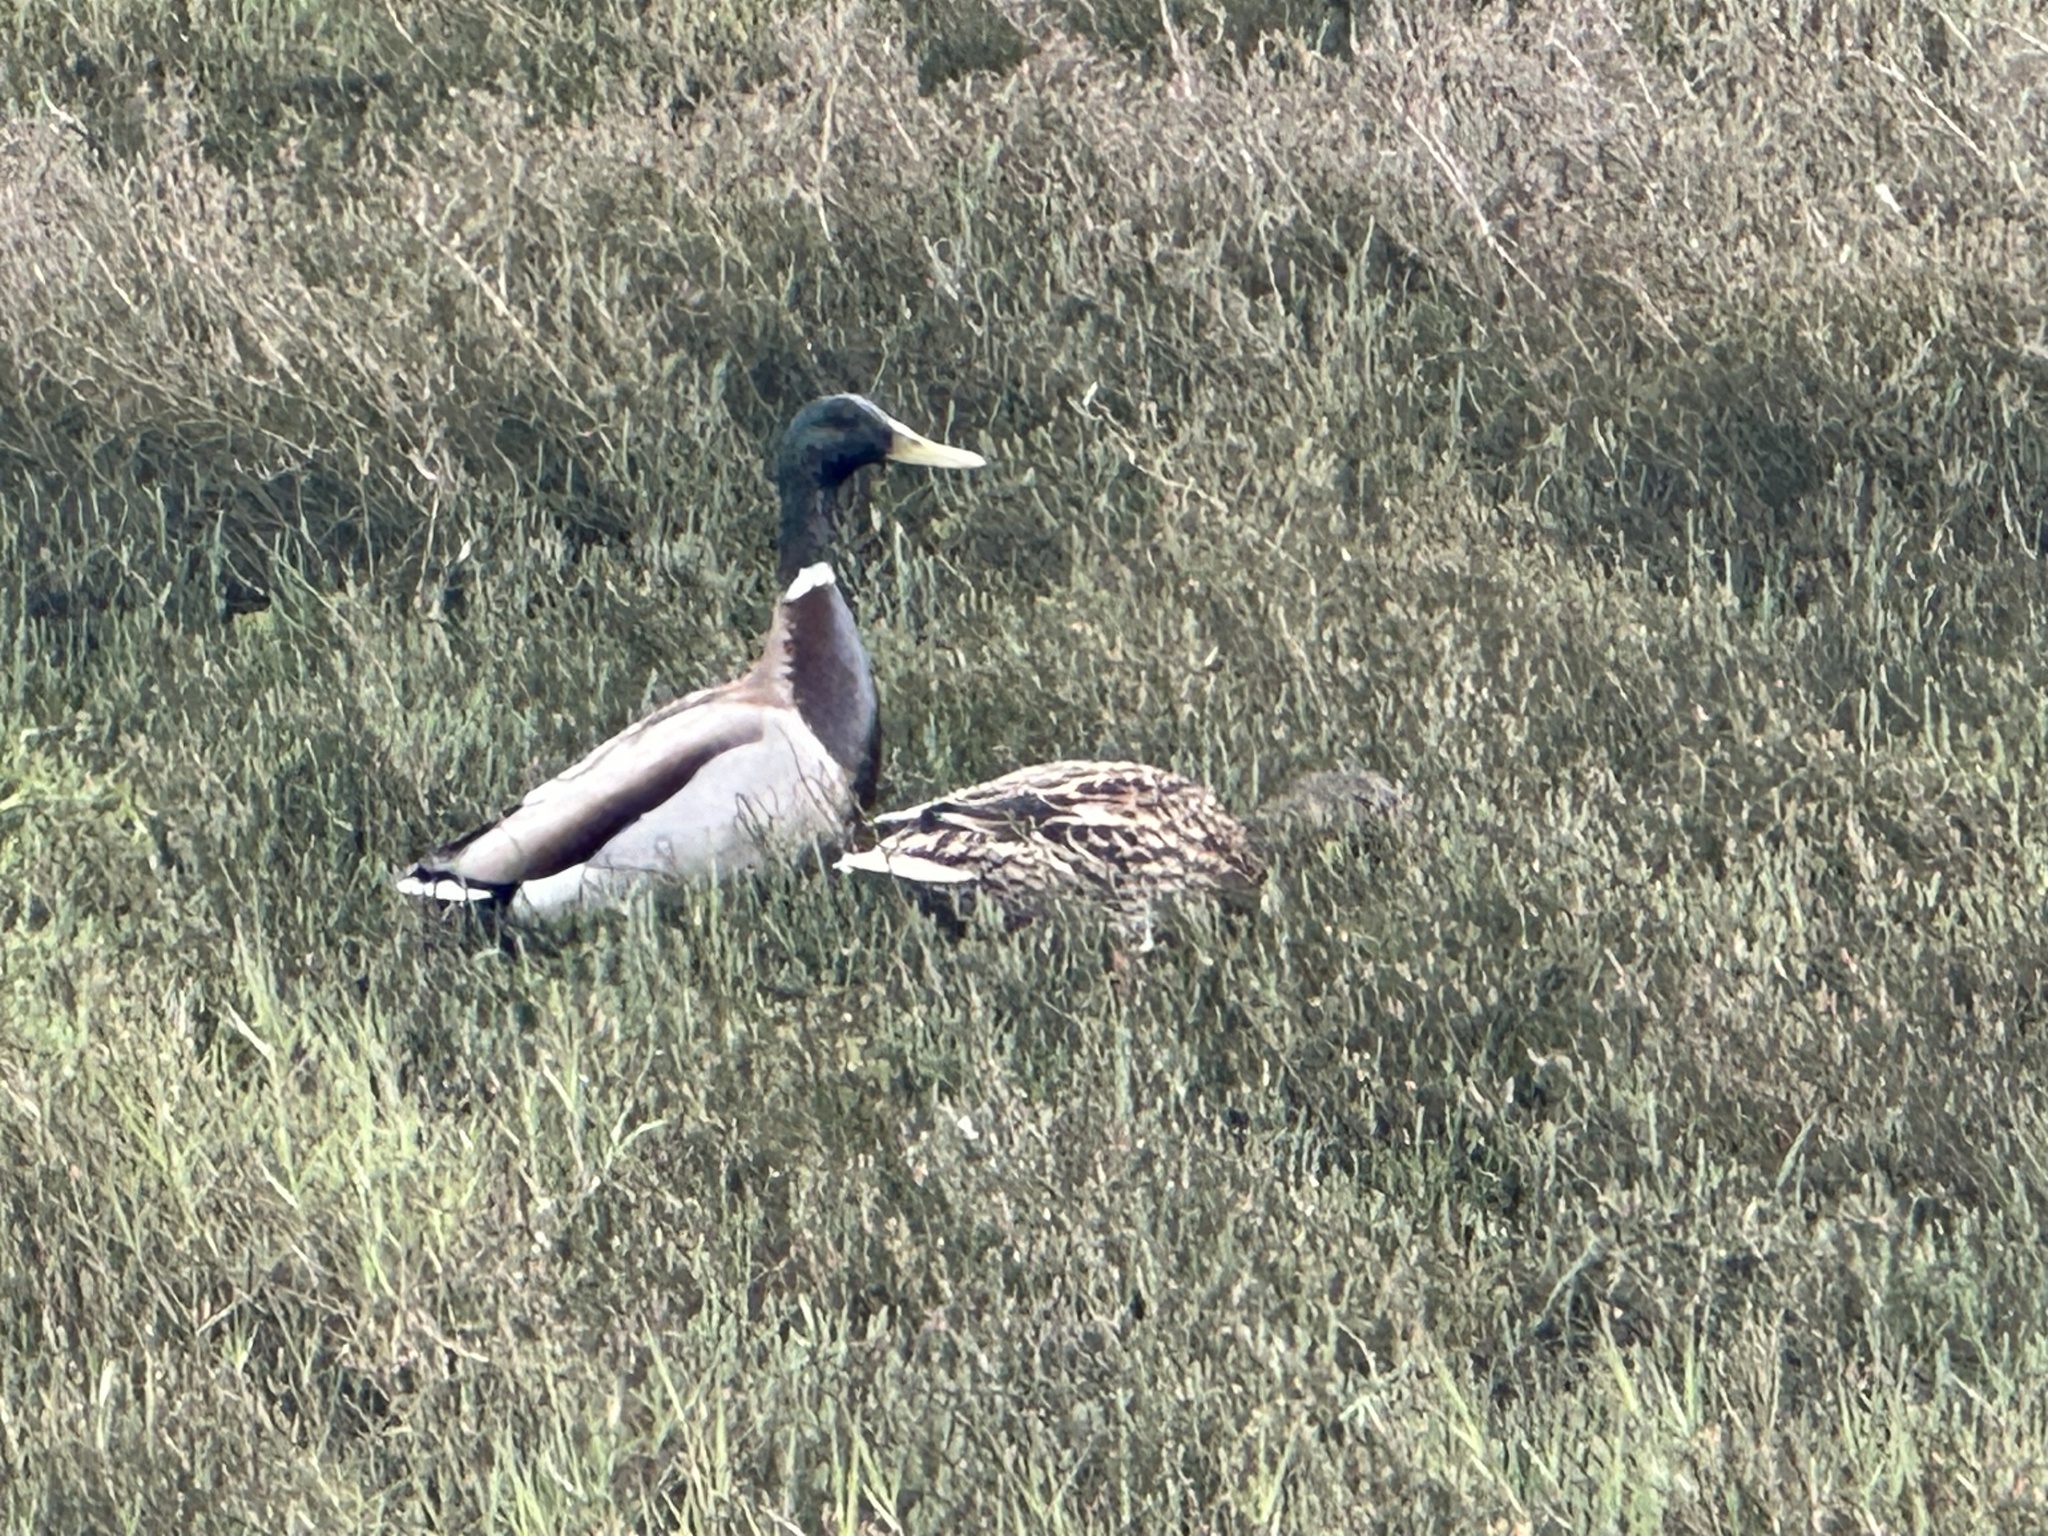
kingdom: Animalia
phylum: Chordata
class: Aves
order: Anseriformes
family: Anatidae
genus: Anas
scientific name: Anas platyrhynchos
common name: Mallard
